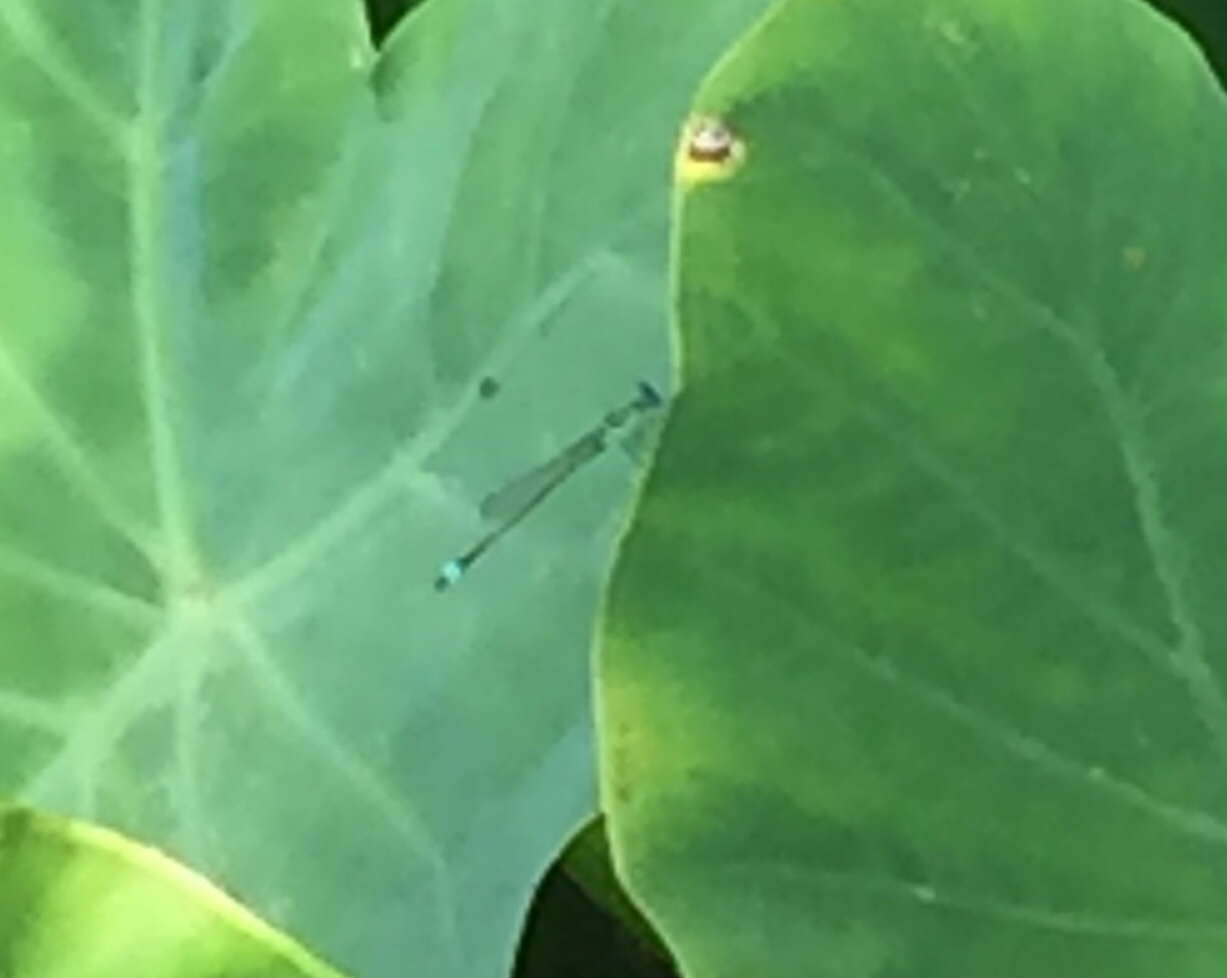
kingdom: Animalia
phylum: Arthropoda
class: Insecta
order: Odonata
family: Coenagrionidae
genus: Ischnura
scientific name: Ischnura senegalensis
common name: Tropical bluetail
